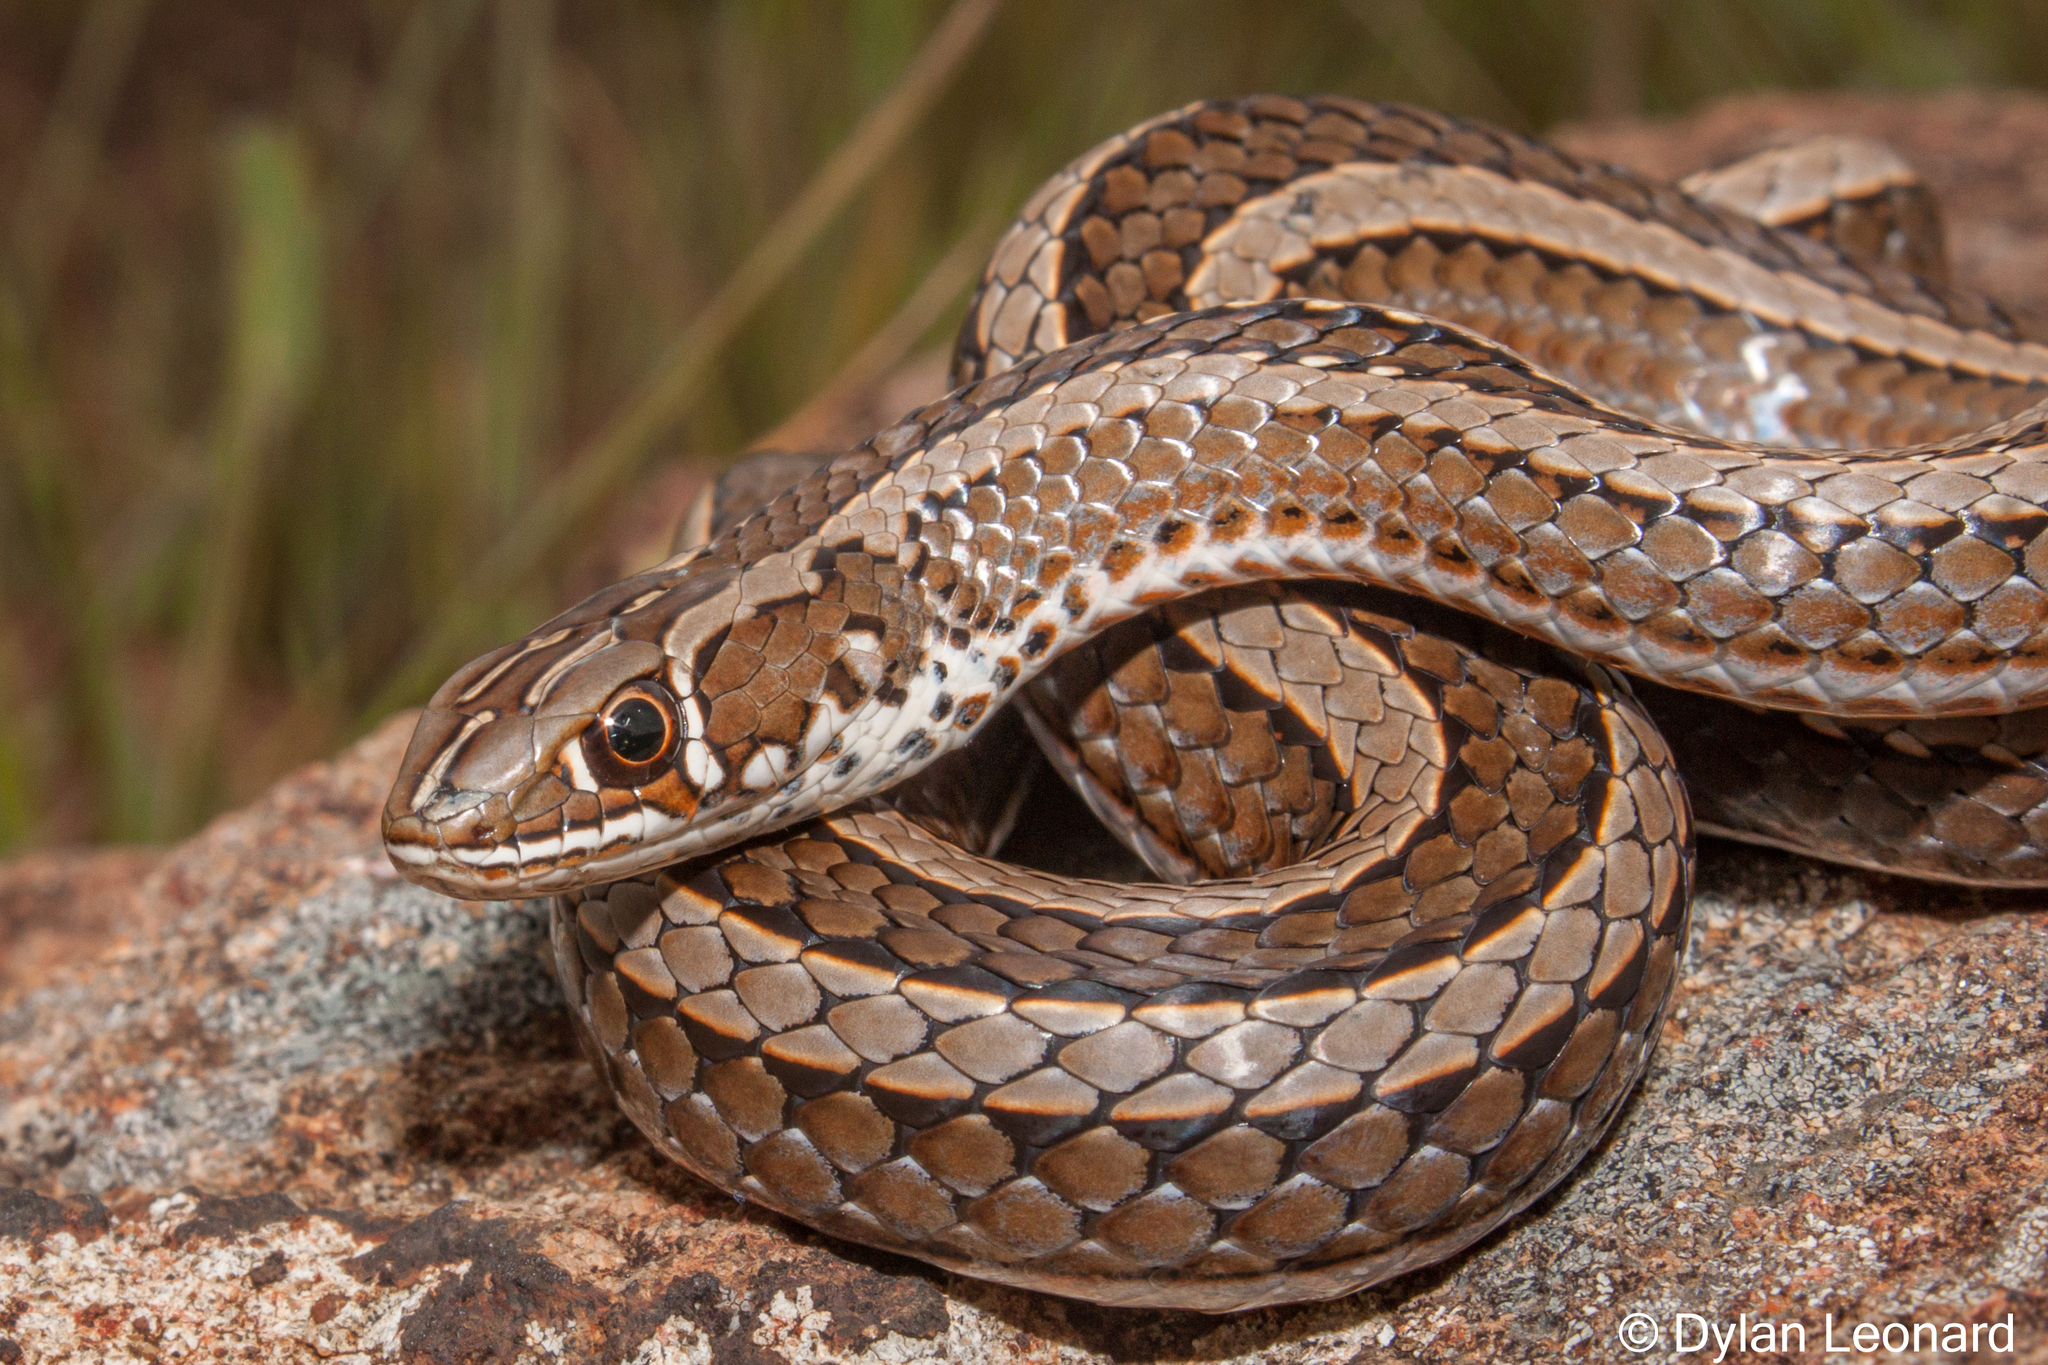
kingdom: Animalia
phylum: Chordata
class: Squamata
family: Psammophiidae
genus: Psammophis
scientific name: Psammophis crucifer
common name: Cross-marked grass snake
